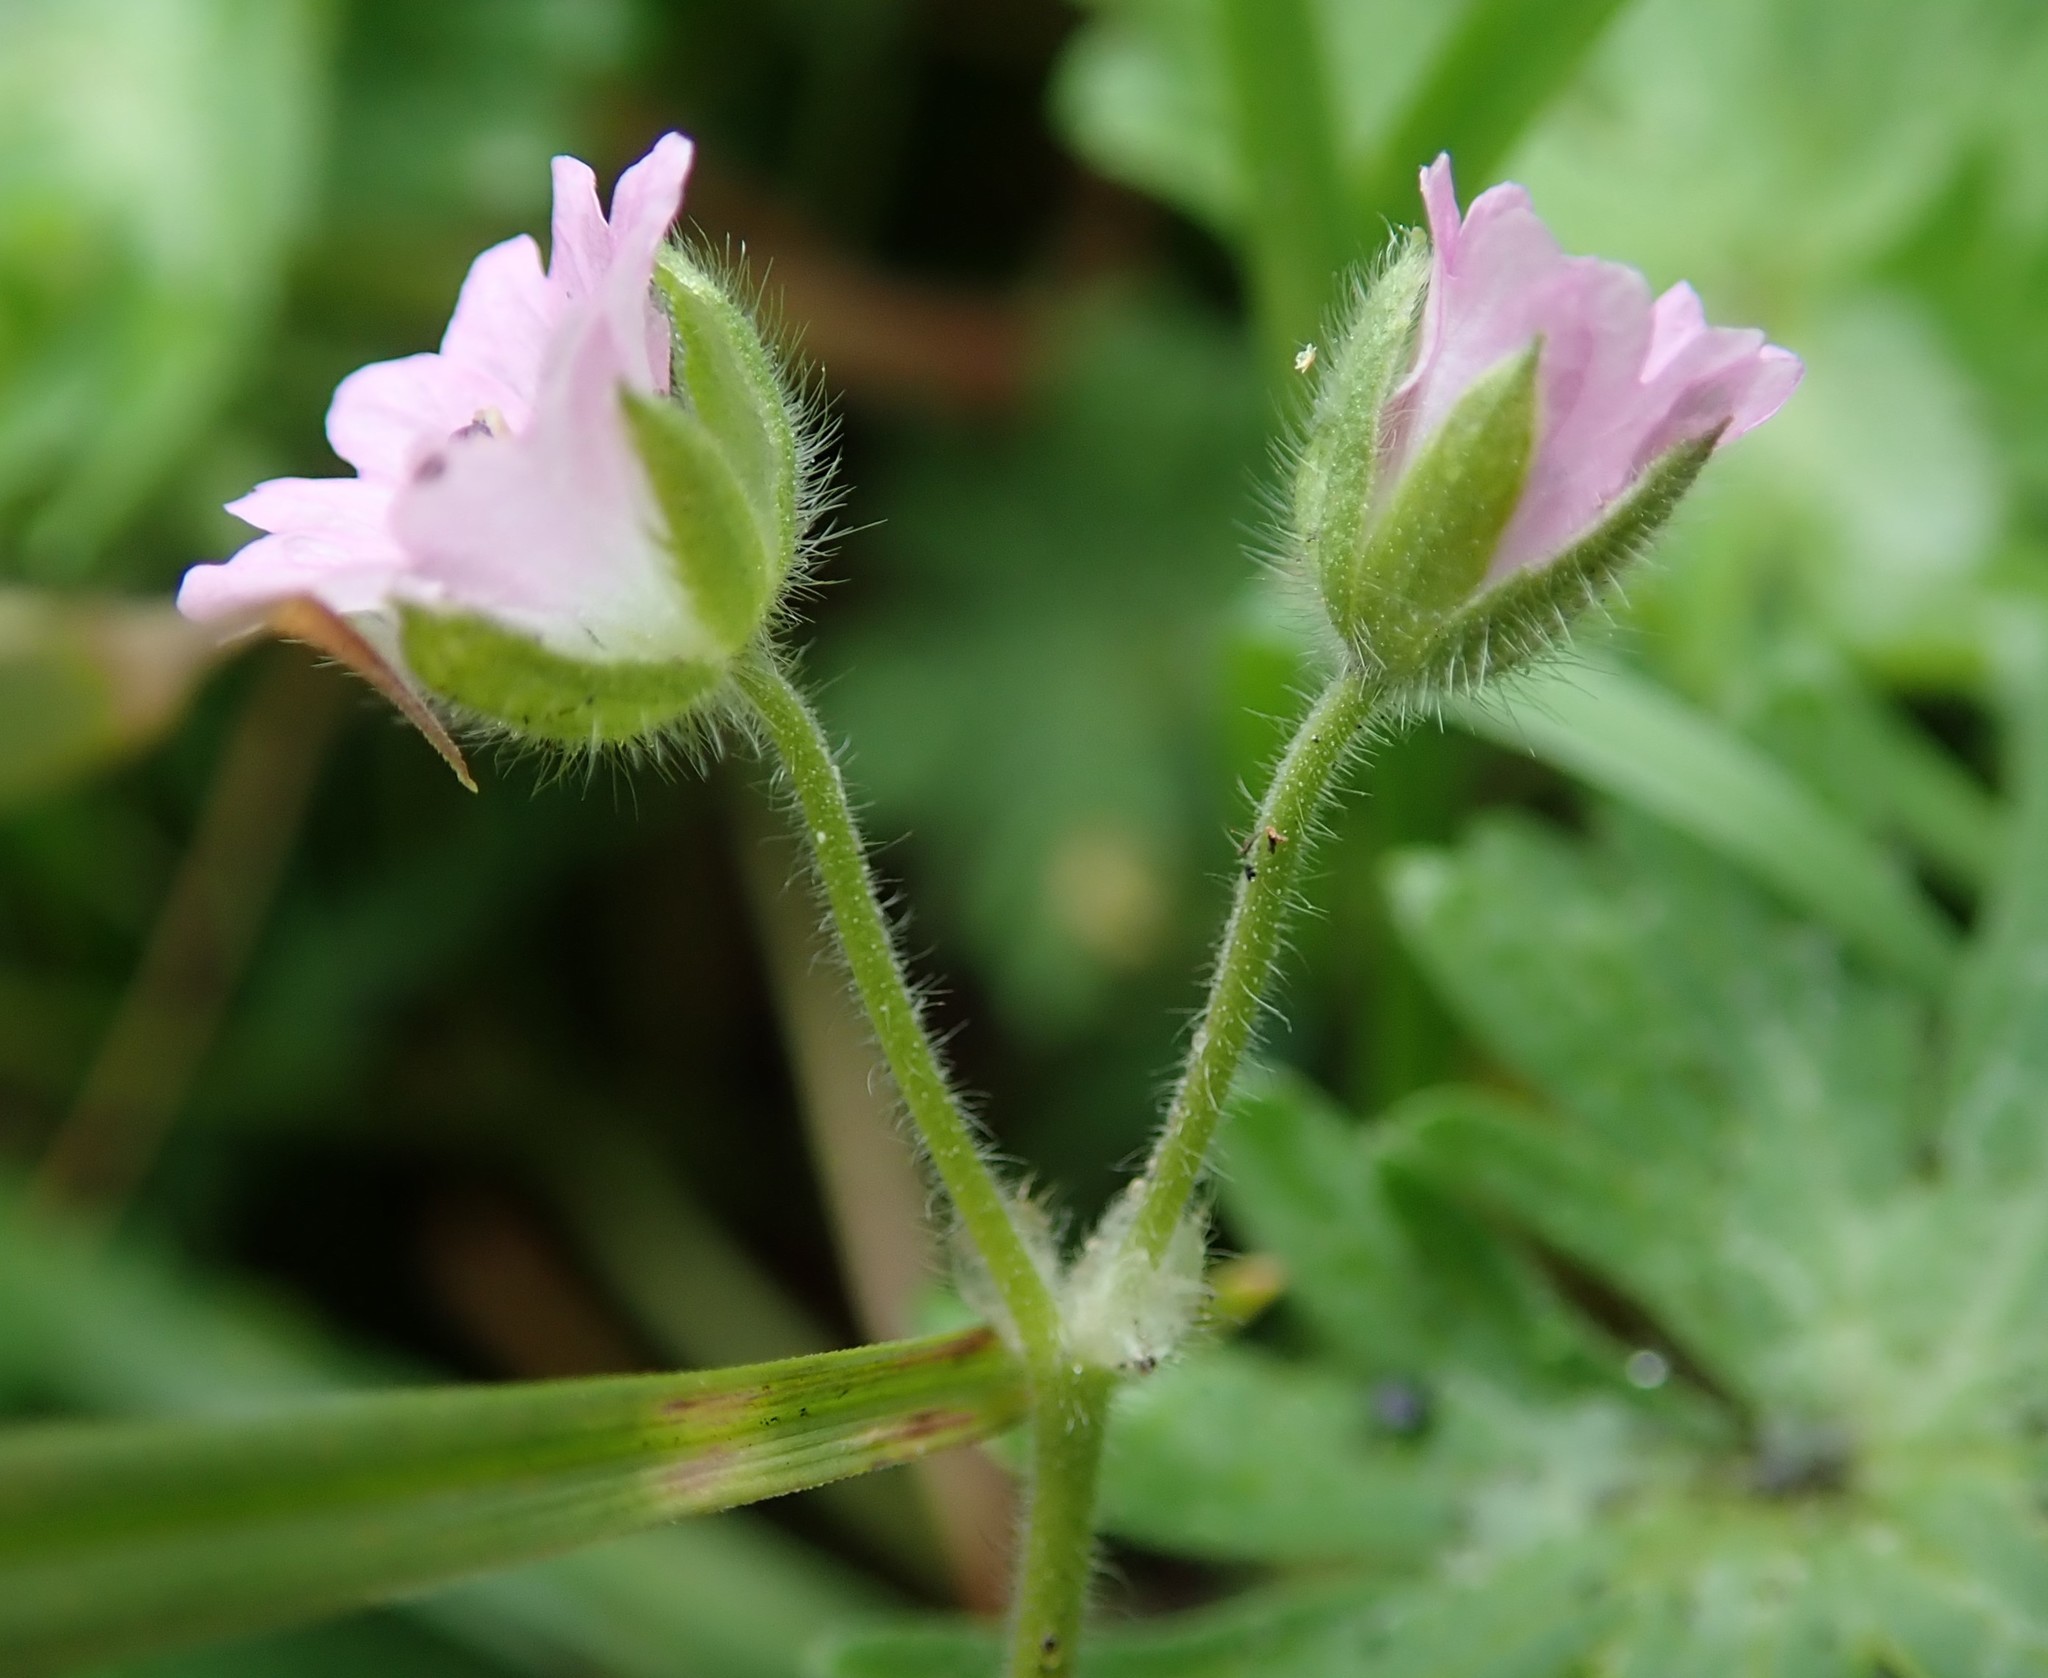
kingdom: Plantae
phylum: Tracheophyta
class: Magnoliopsida
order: Geraniales
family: Geraniaceae
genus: Geranium
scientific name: Geranium molle
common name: Dove's-foot crane's-bill
